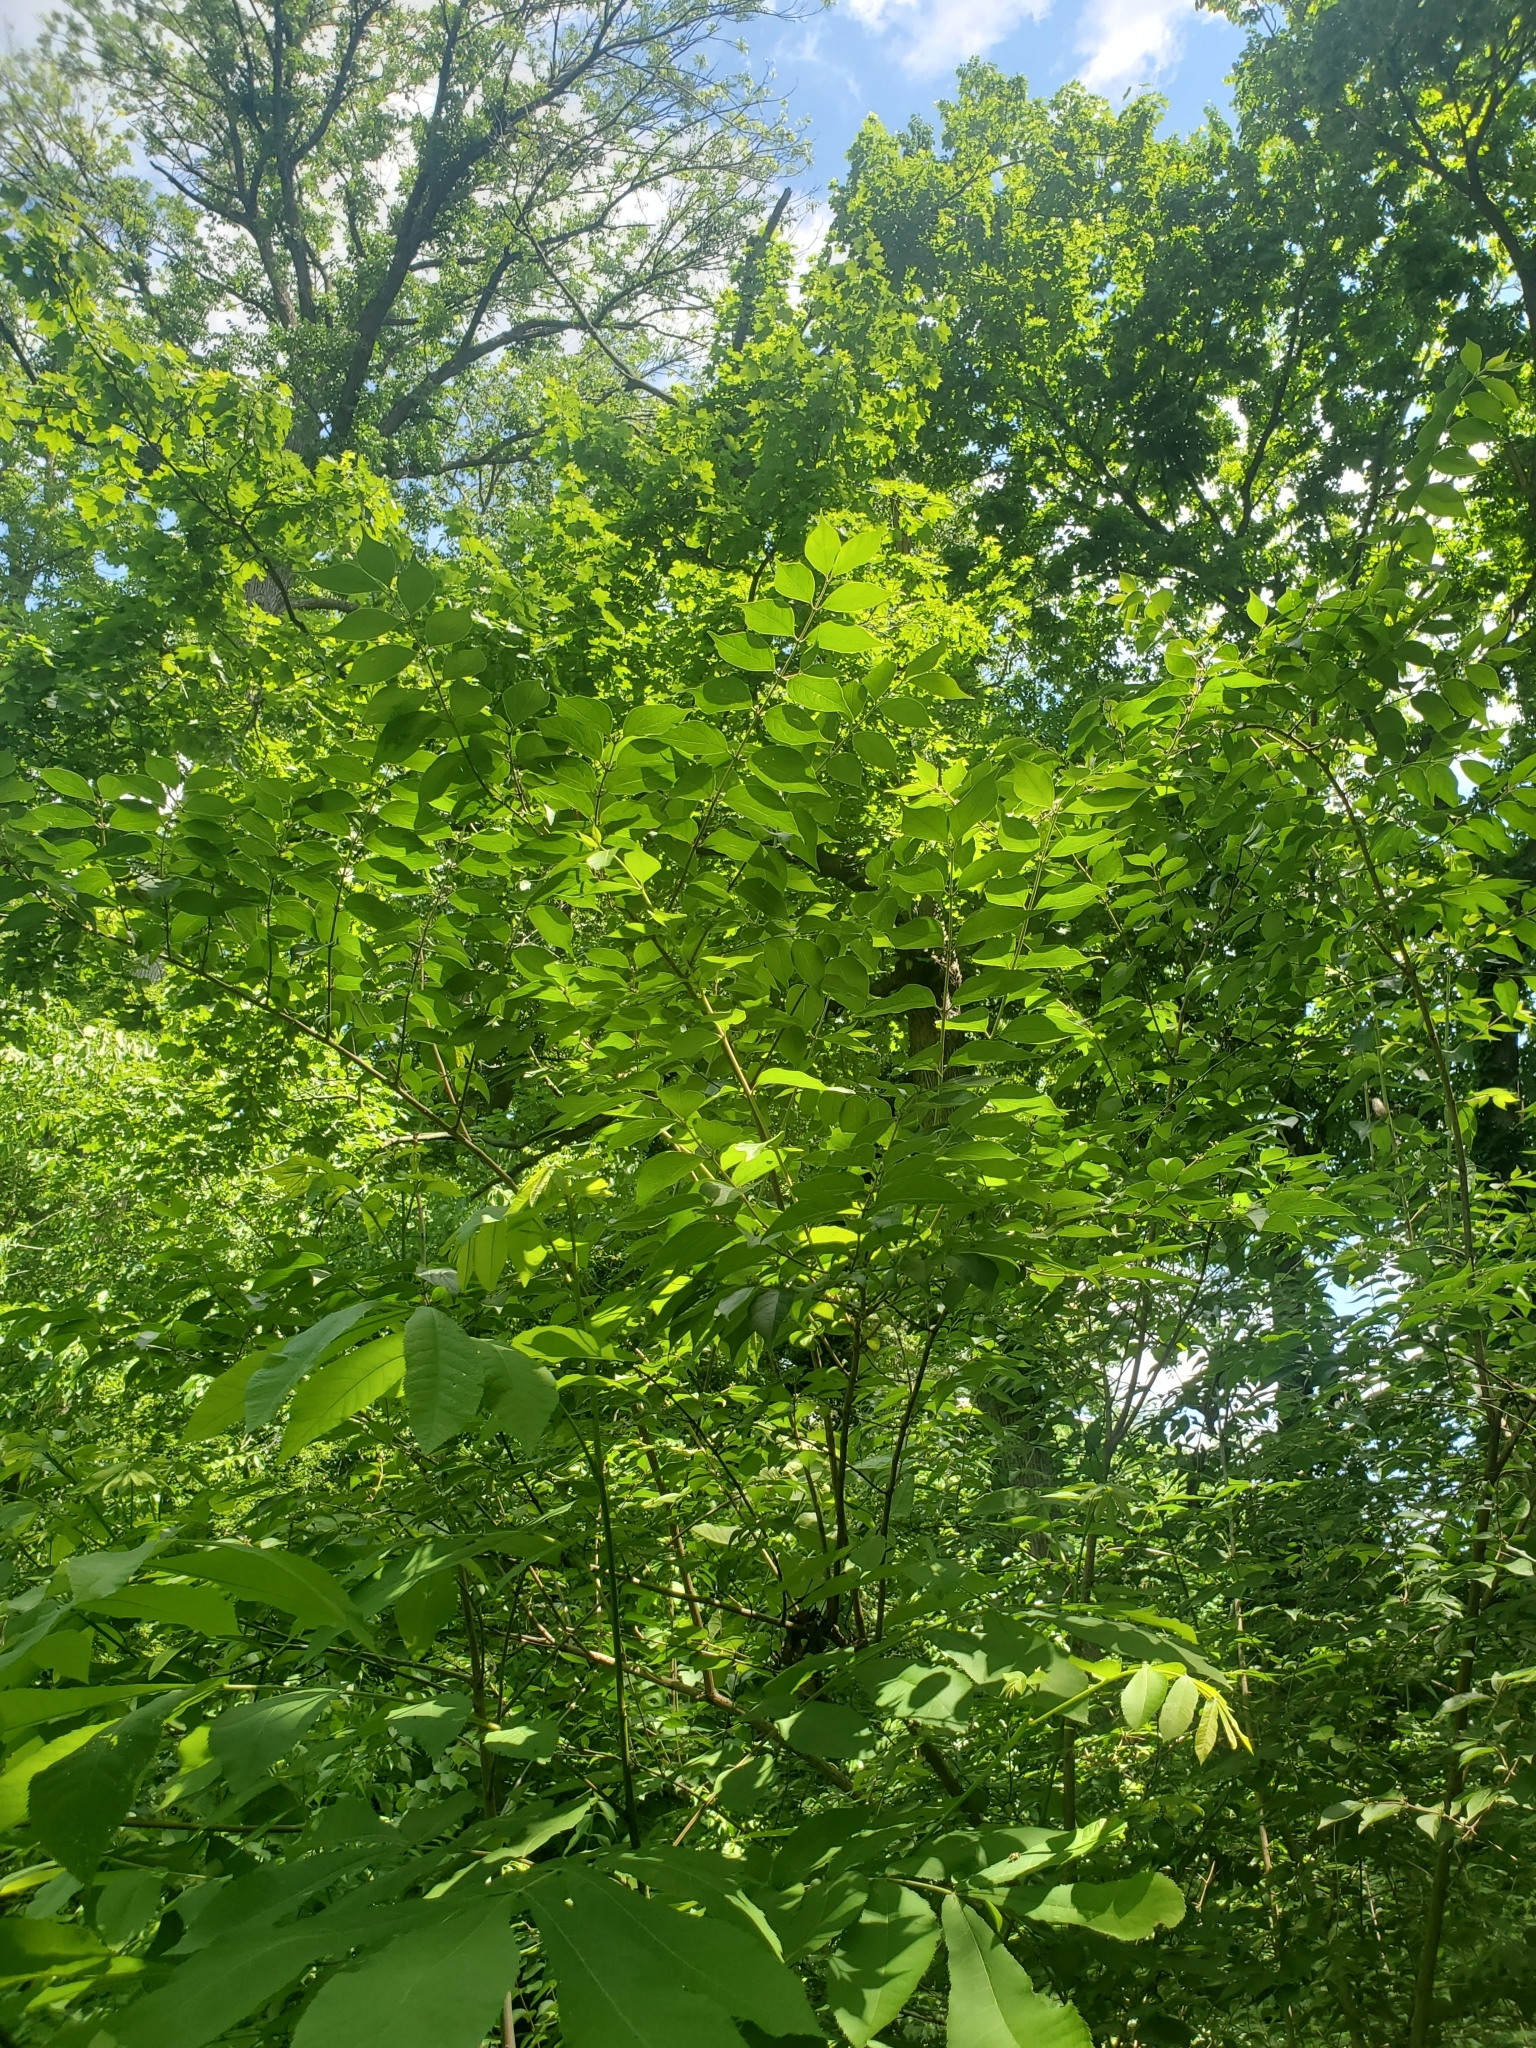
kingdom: Plantae
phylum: Tracheophyta
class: Magnoliopsida
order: Dipsacales
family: Caprifoliaceae
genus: Lonicera
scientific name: Lonicera maackii
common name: Amur honeysuckle
